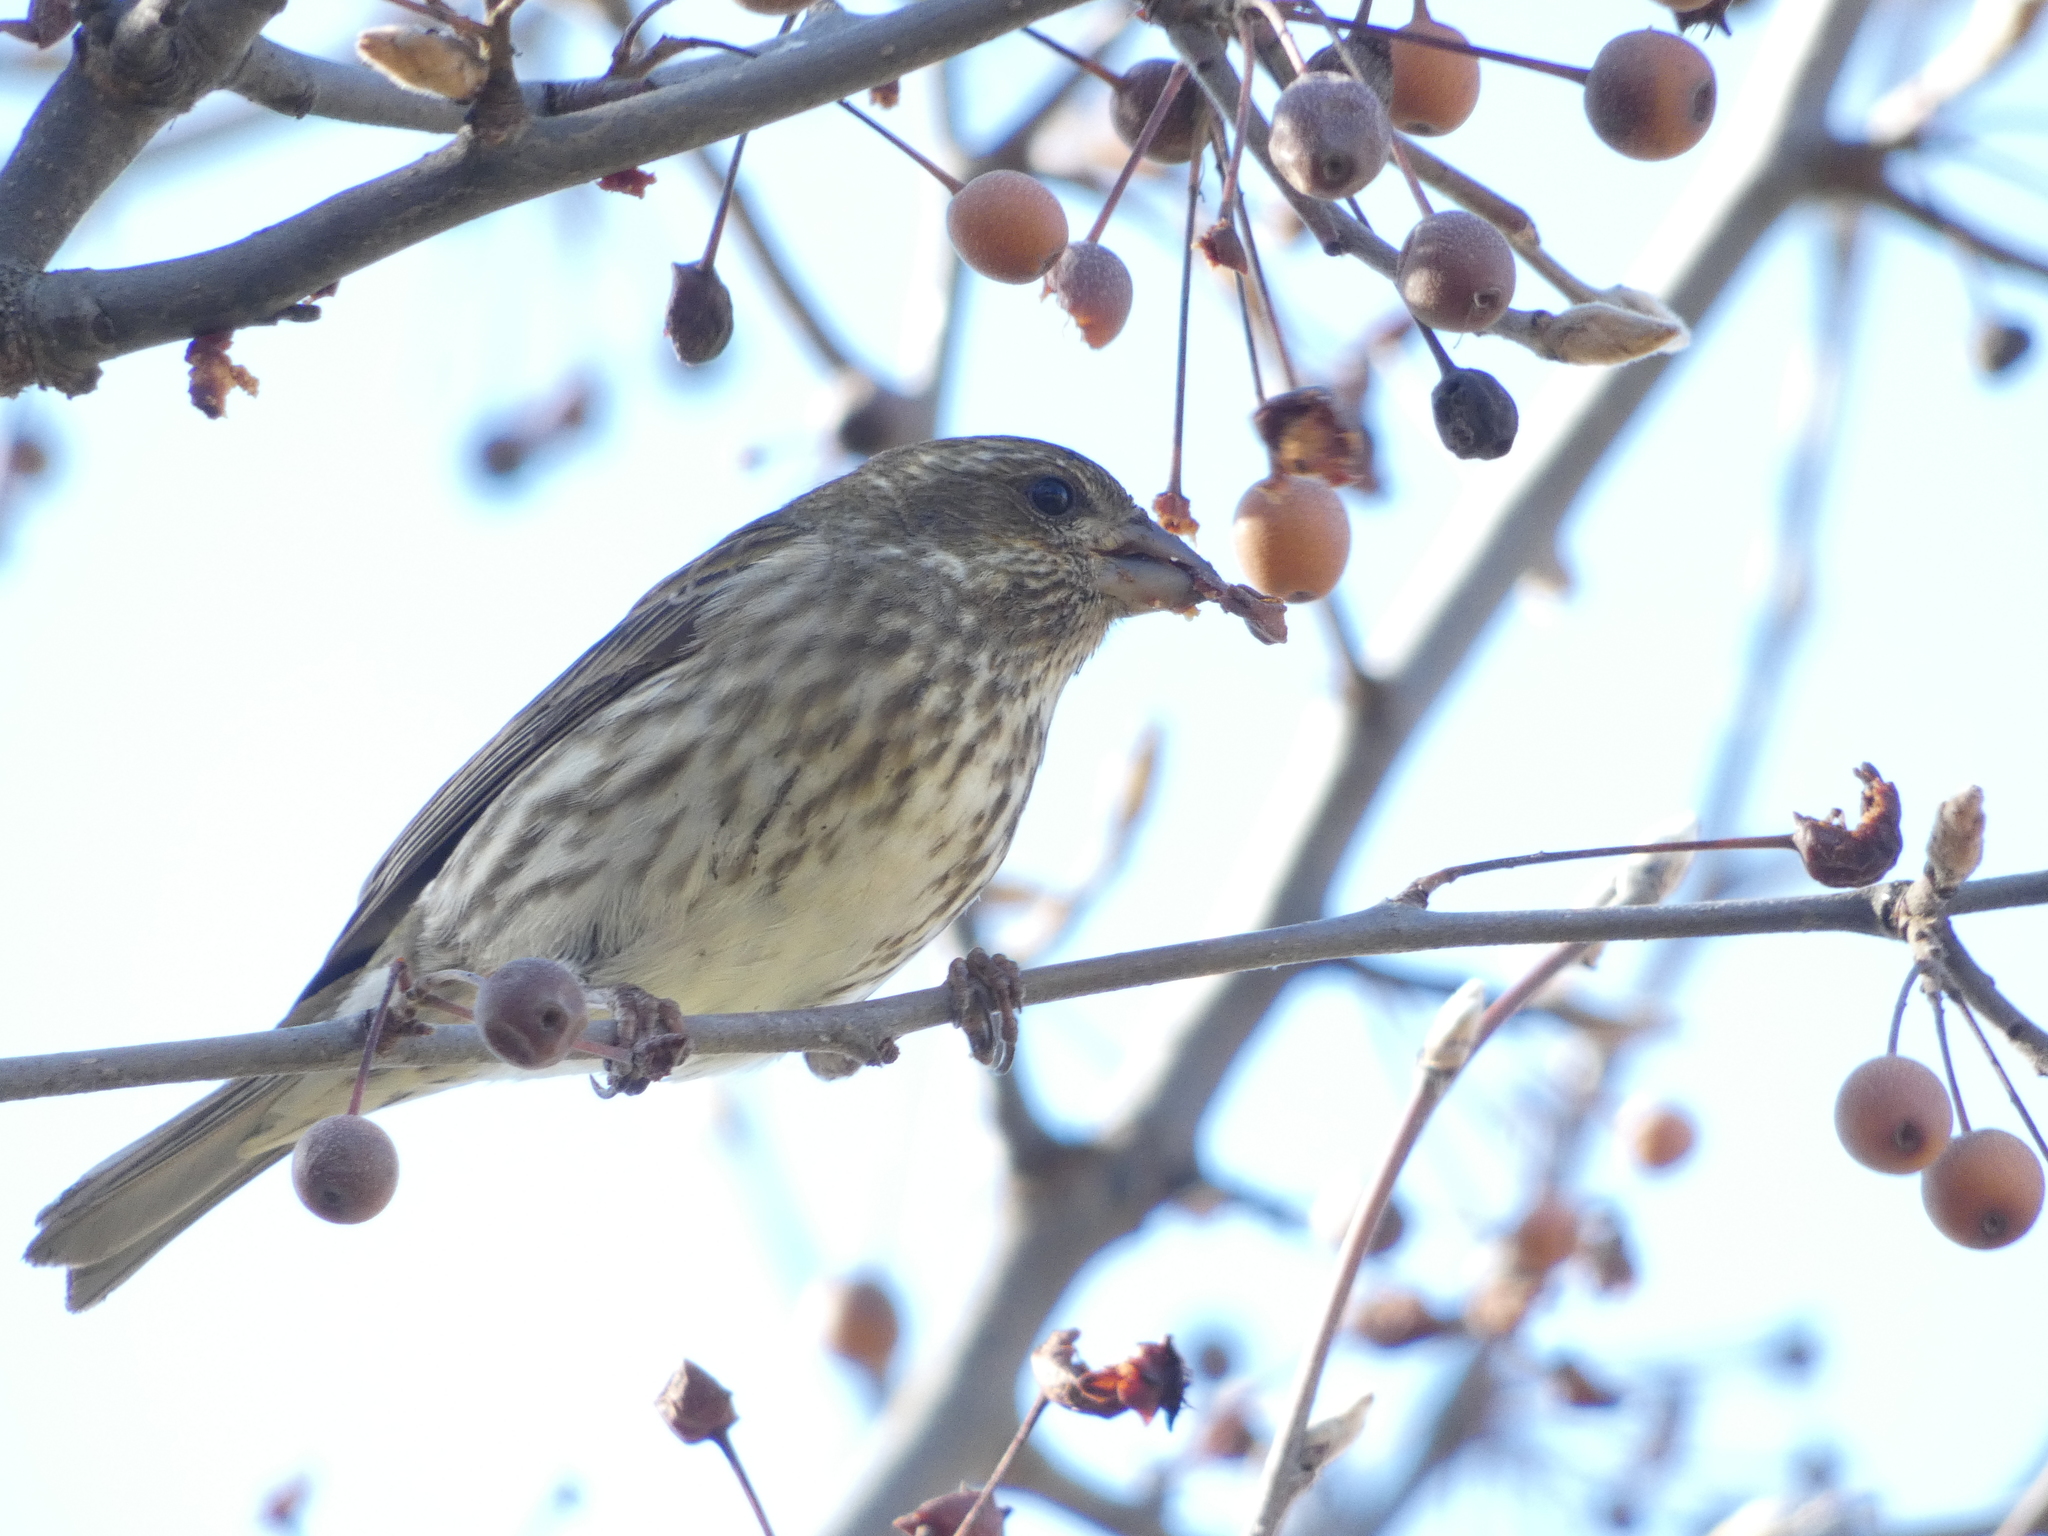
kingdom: Animalia
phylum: Chordata
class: Aves
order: Passeriformes
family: Fringillidae
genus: Haemorhous
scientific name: Haemorhous purpureus
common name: Purple finch
